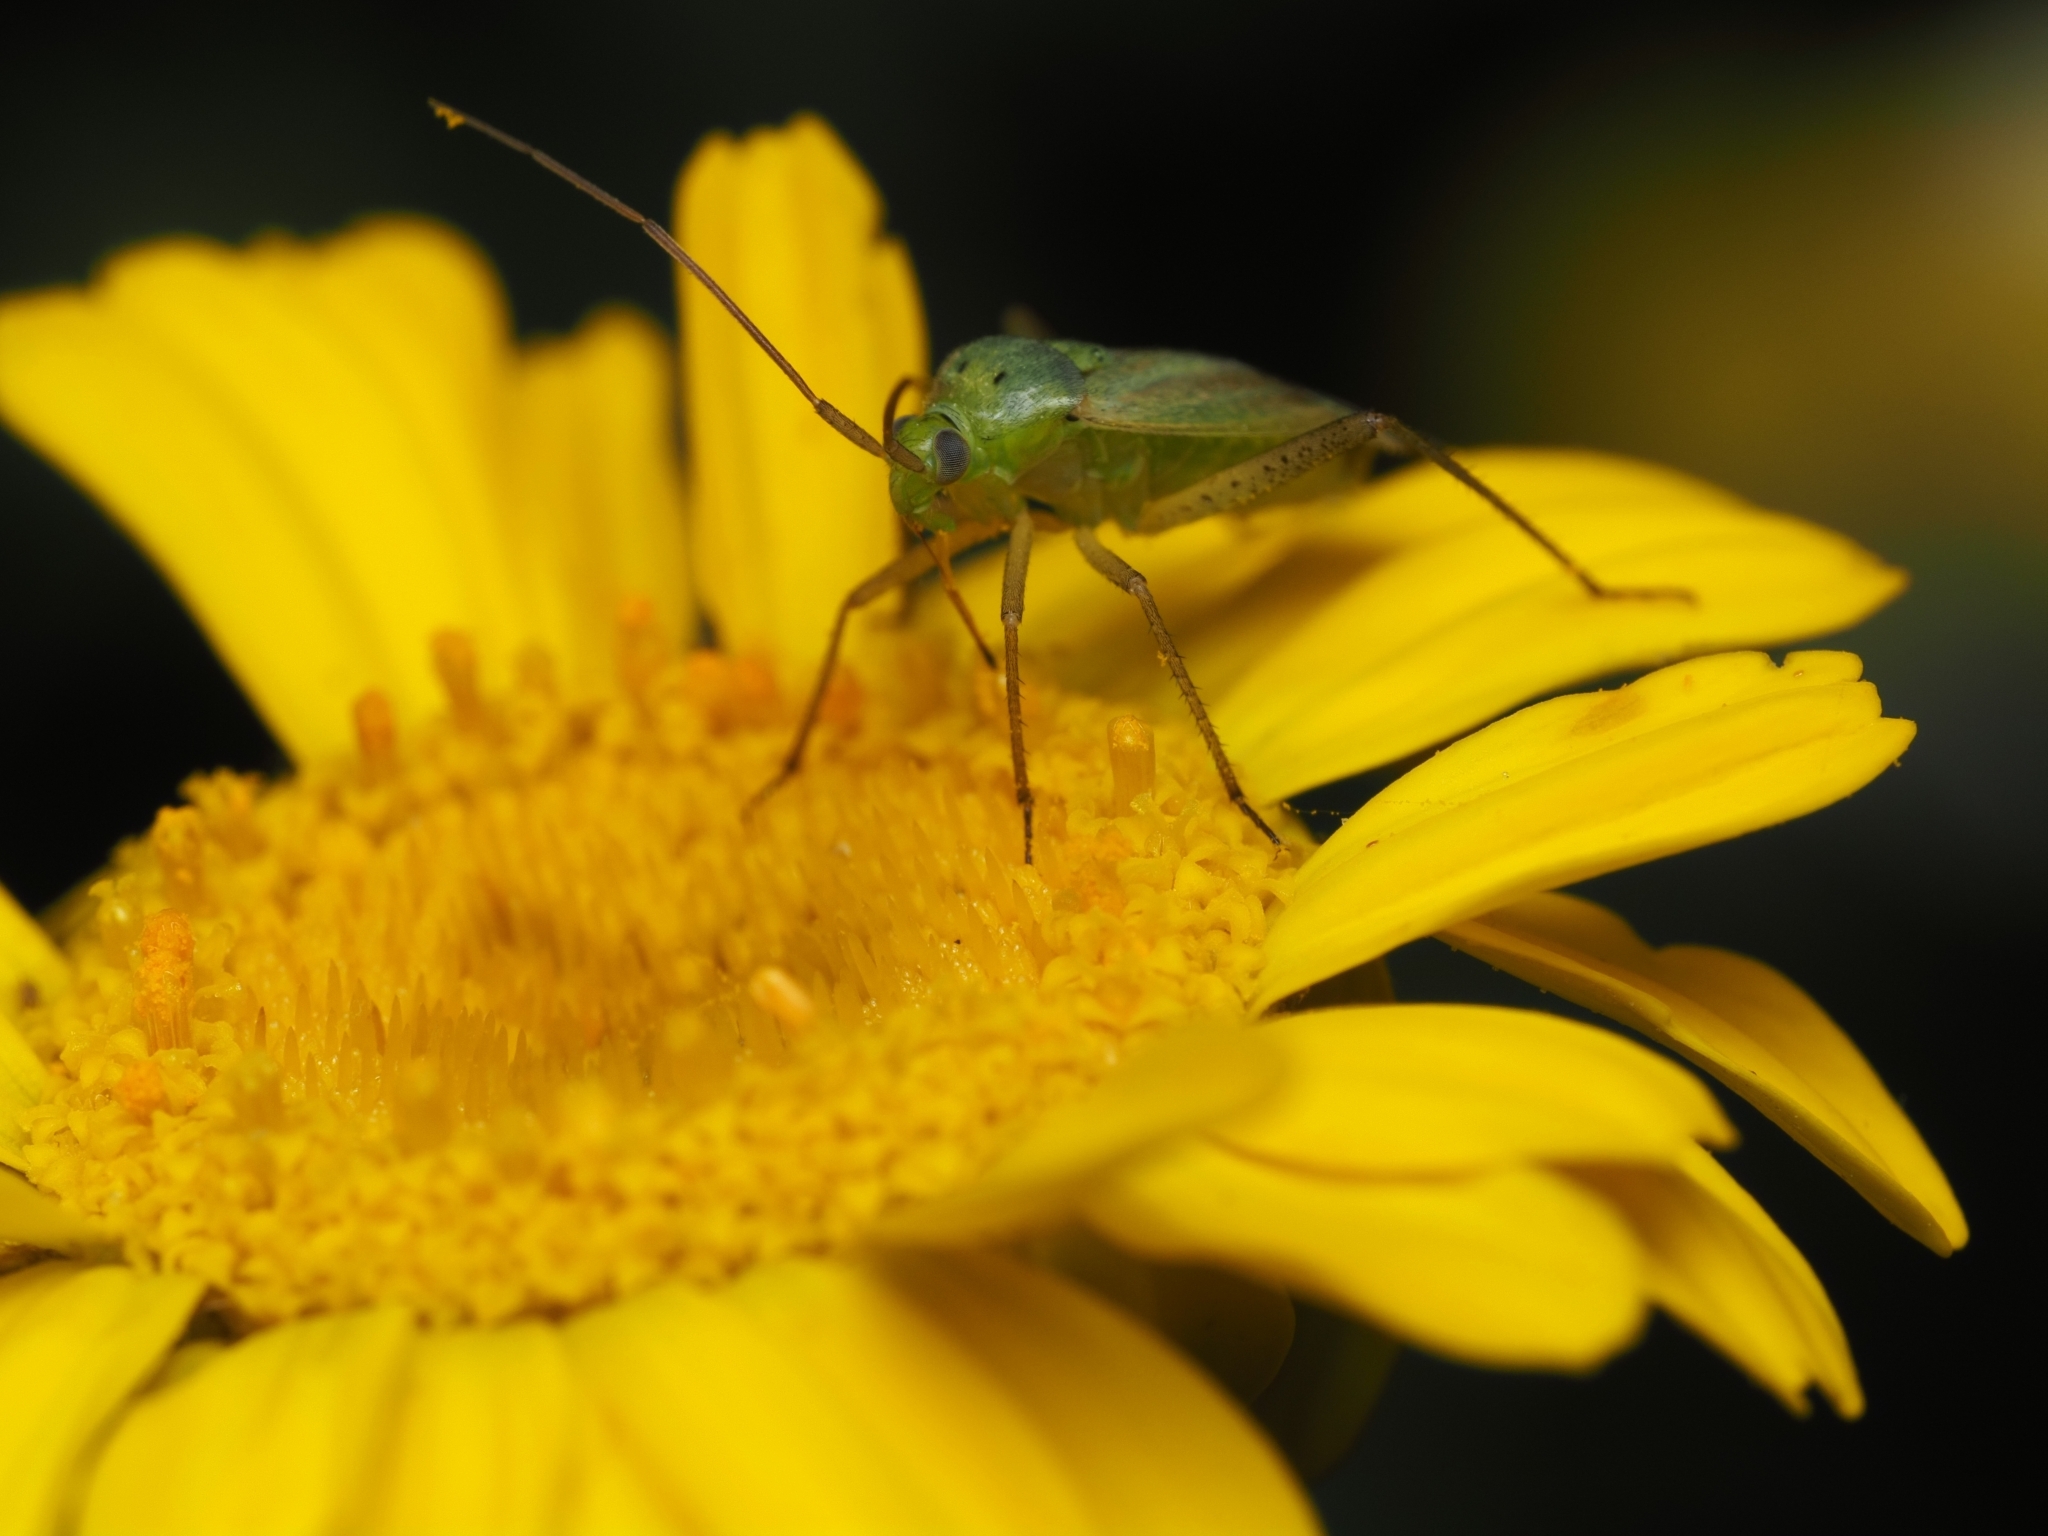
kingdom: Animalia
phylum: Arthropoda
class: Insecta
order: Hemiptera
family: Miridae
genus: Closterotomus
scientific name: Closterotomus norvegicus
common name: Plant bug
